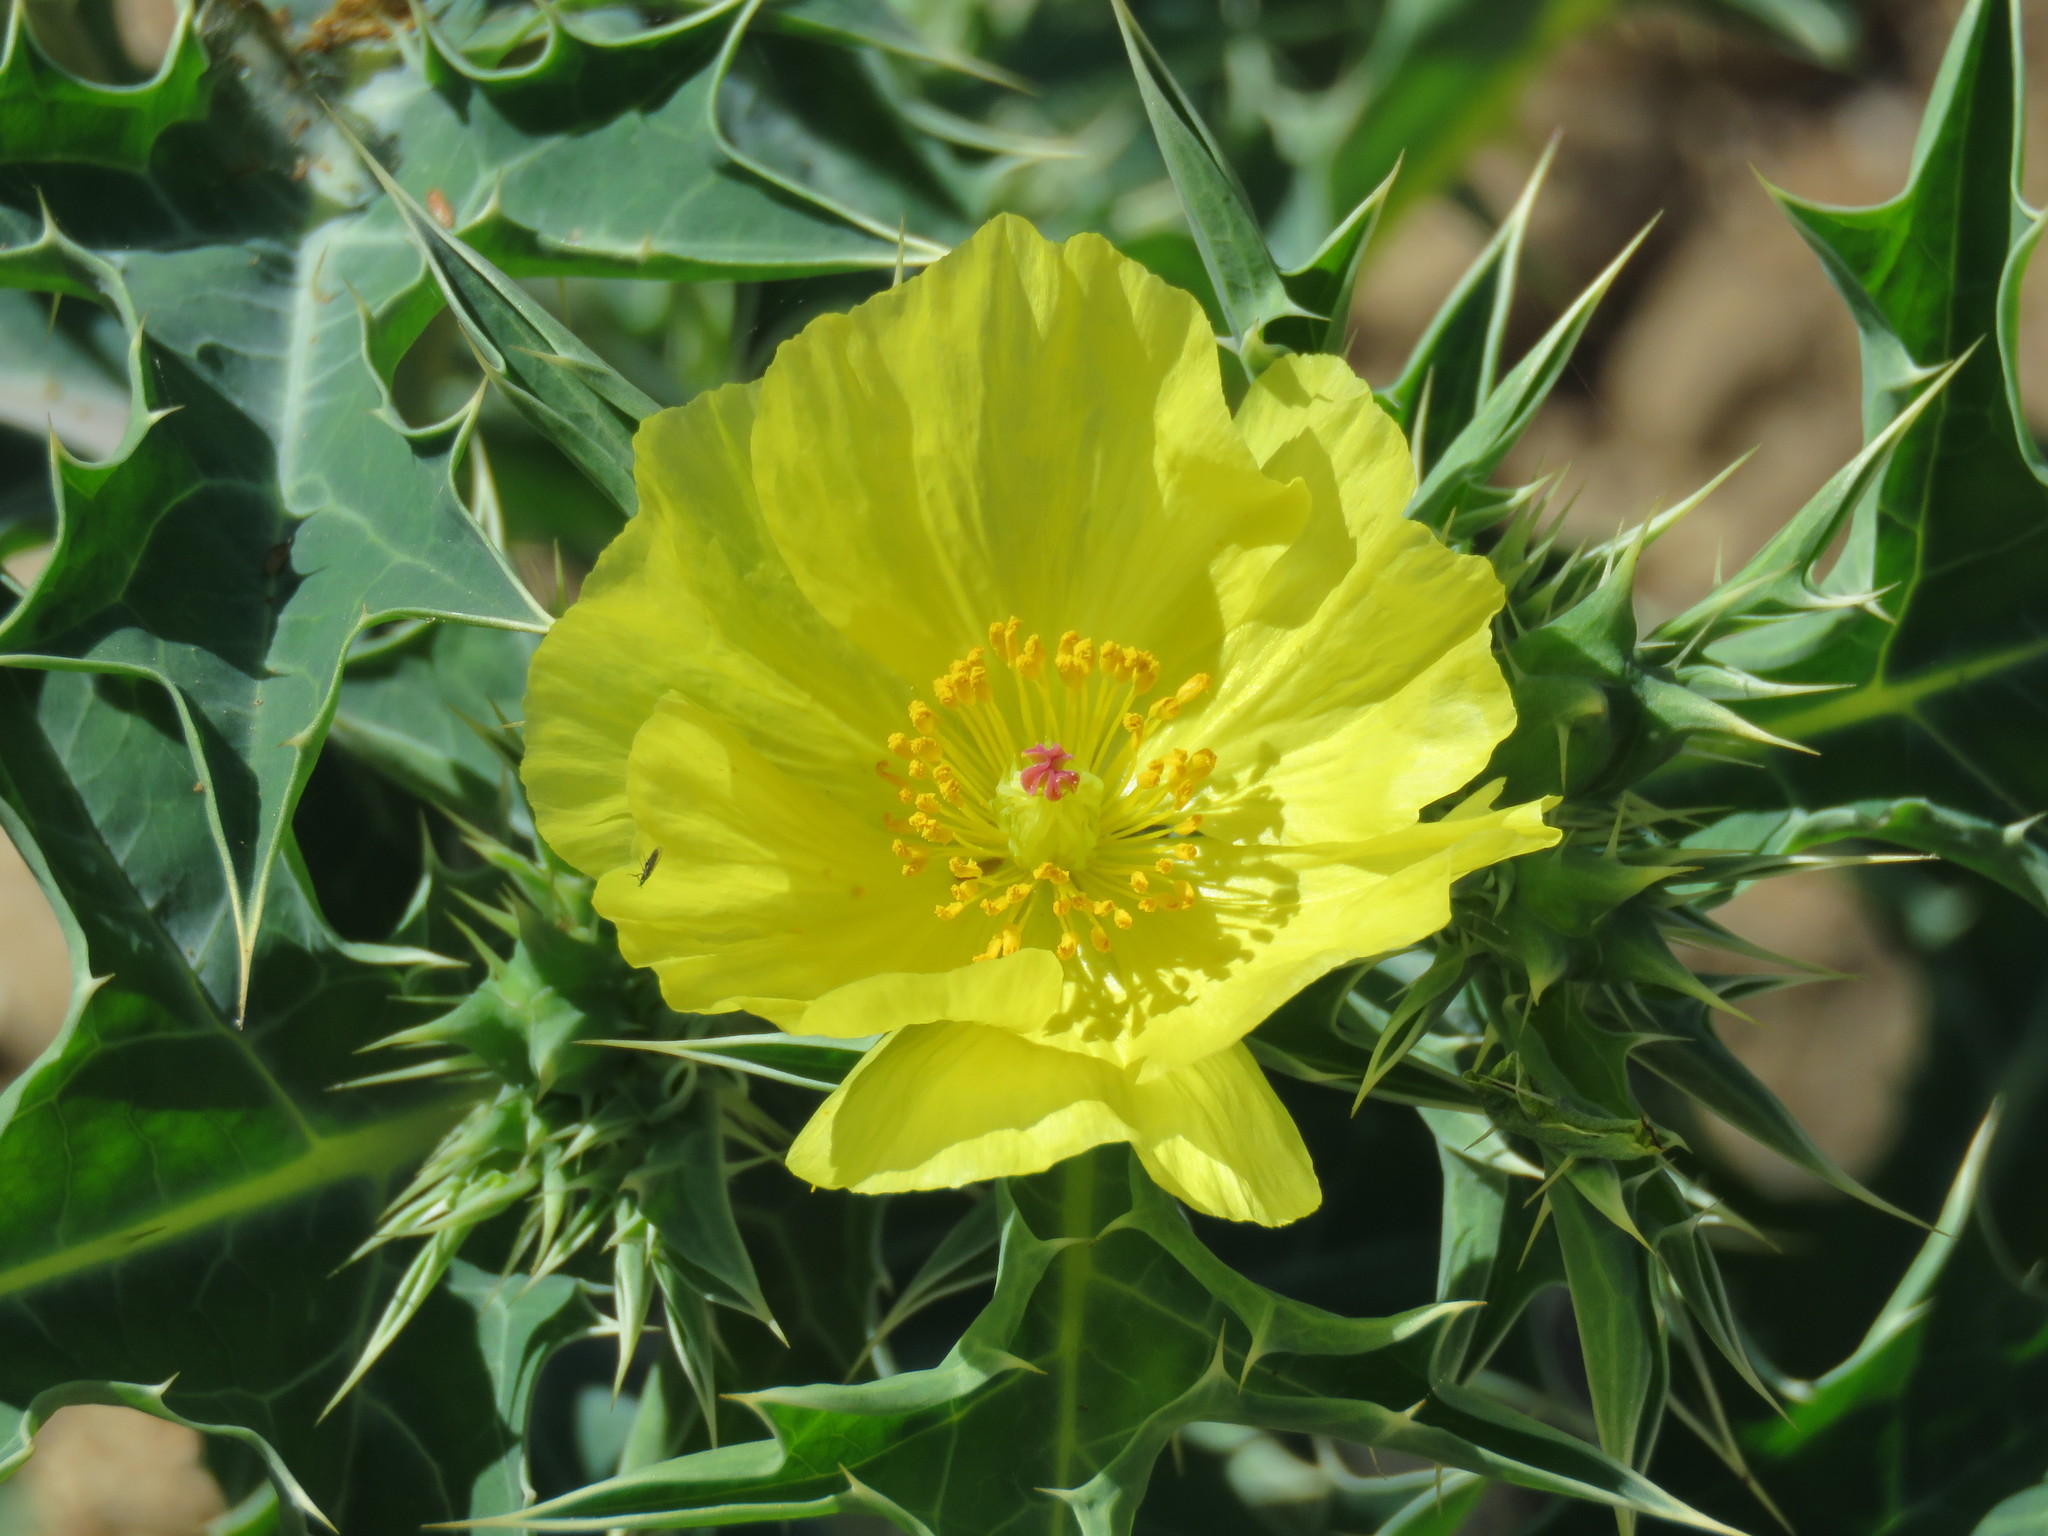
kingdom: Plantae
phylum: Tracheophyta
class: Magnoliopsida
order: Ranunculales
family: Papaveraceae
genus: Argemone
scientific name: Argemone mexicana
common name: Mexican poppy
